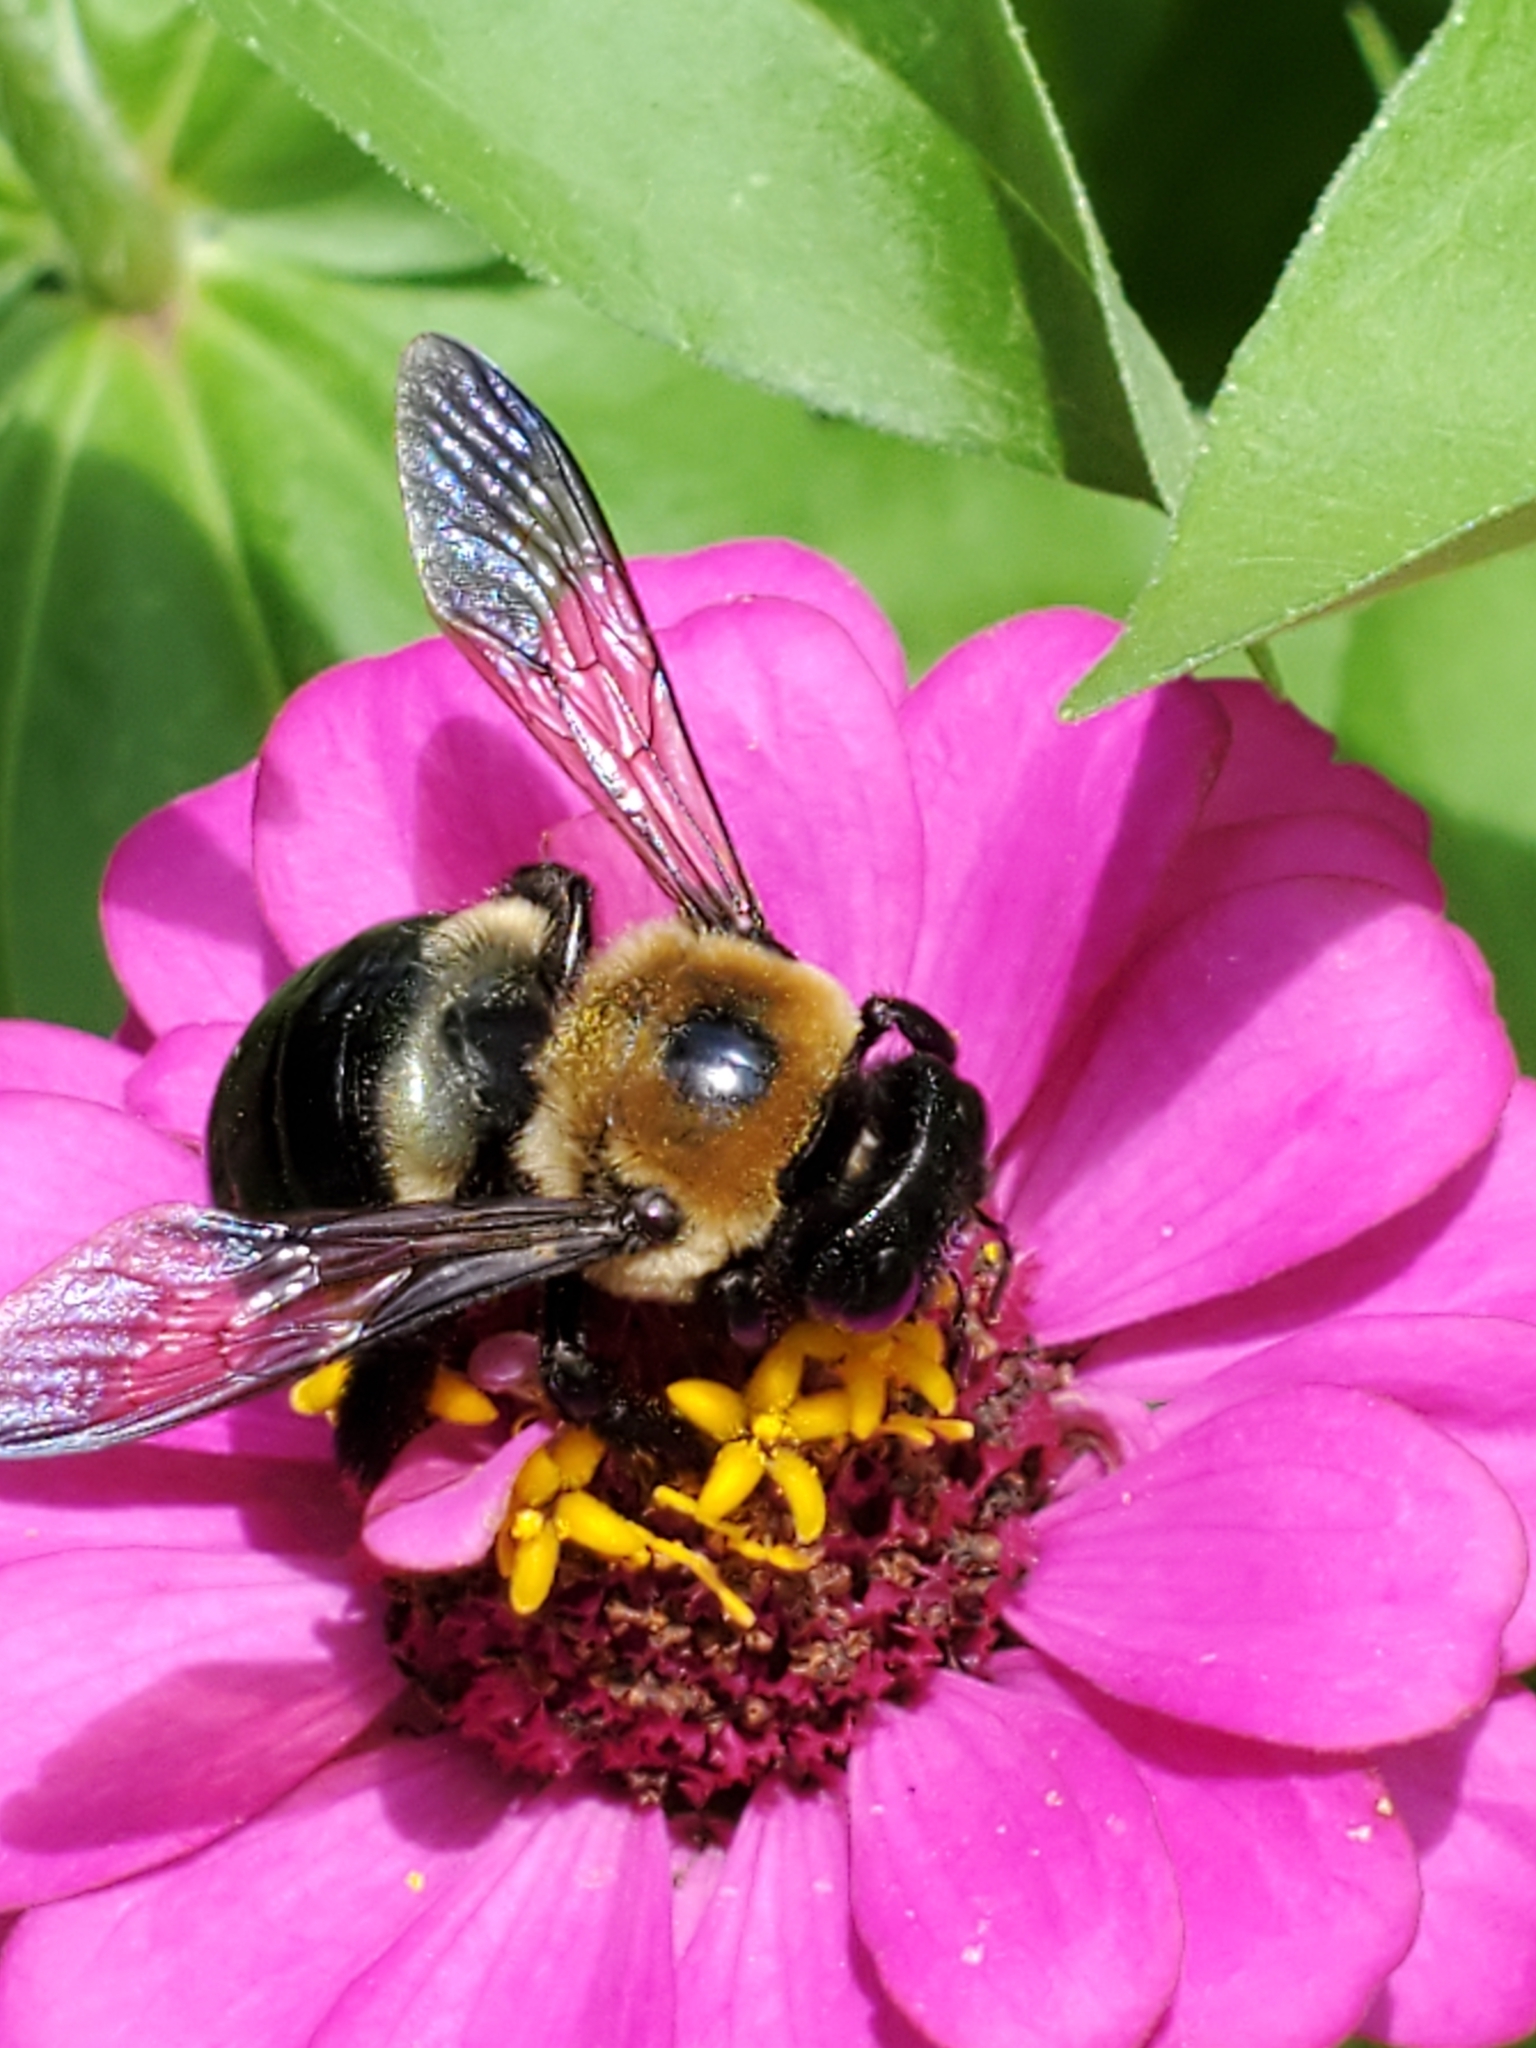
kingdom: Animalia
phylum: Arthropoda
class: Insecta
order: Hymenoptera
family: Apidae
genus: Xylocopa
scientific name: Xylocopa virginica
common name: Carpenter bee
